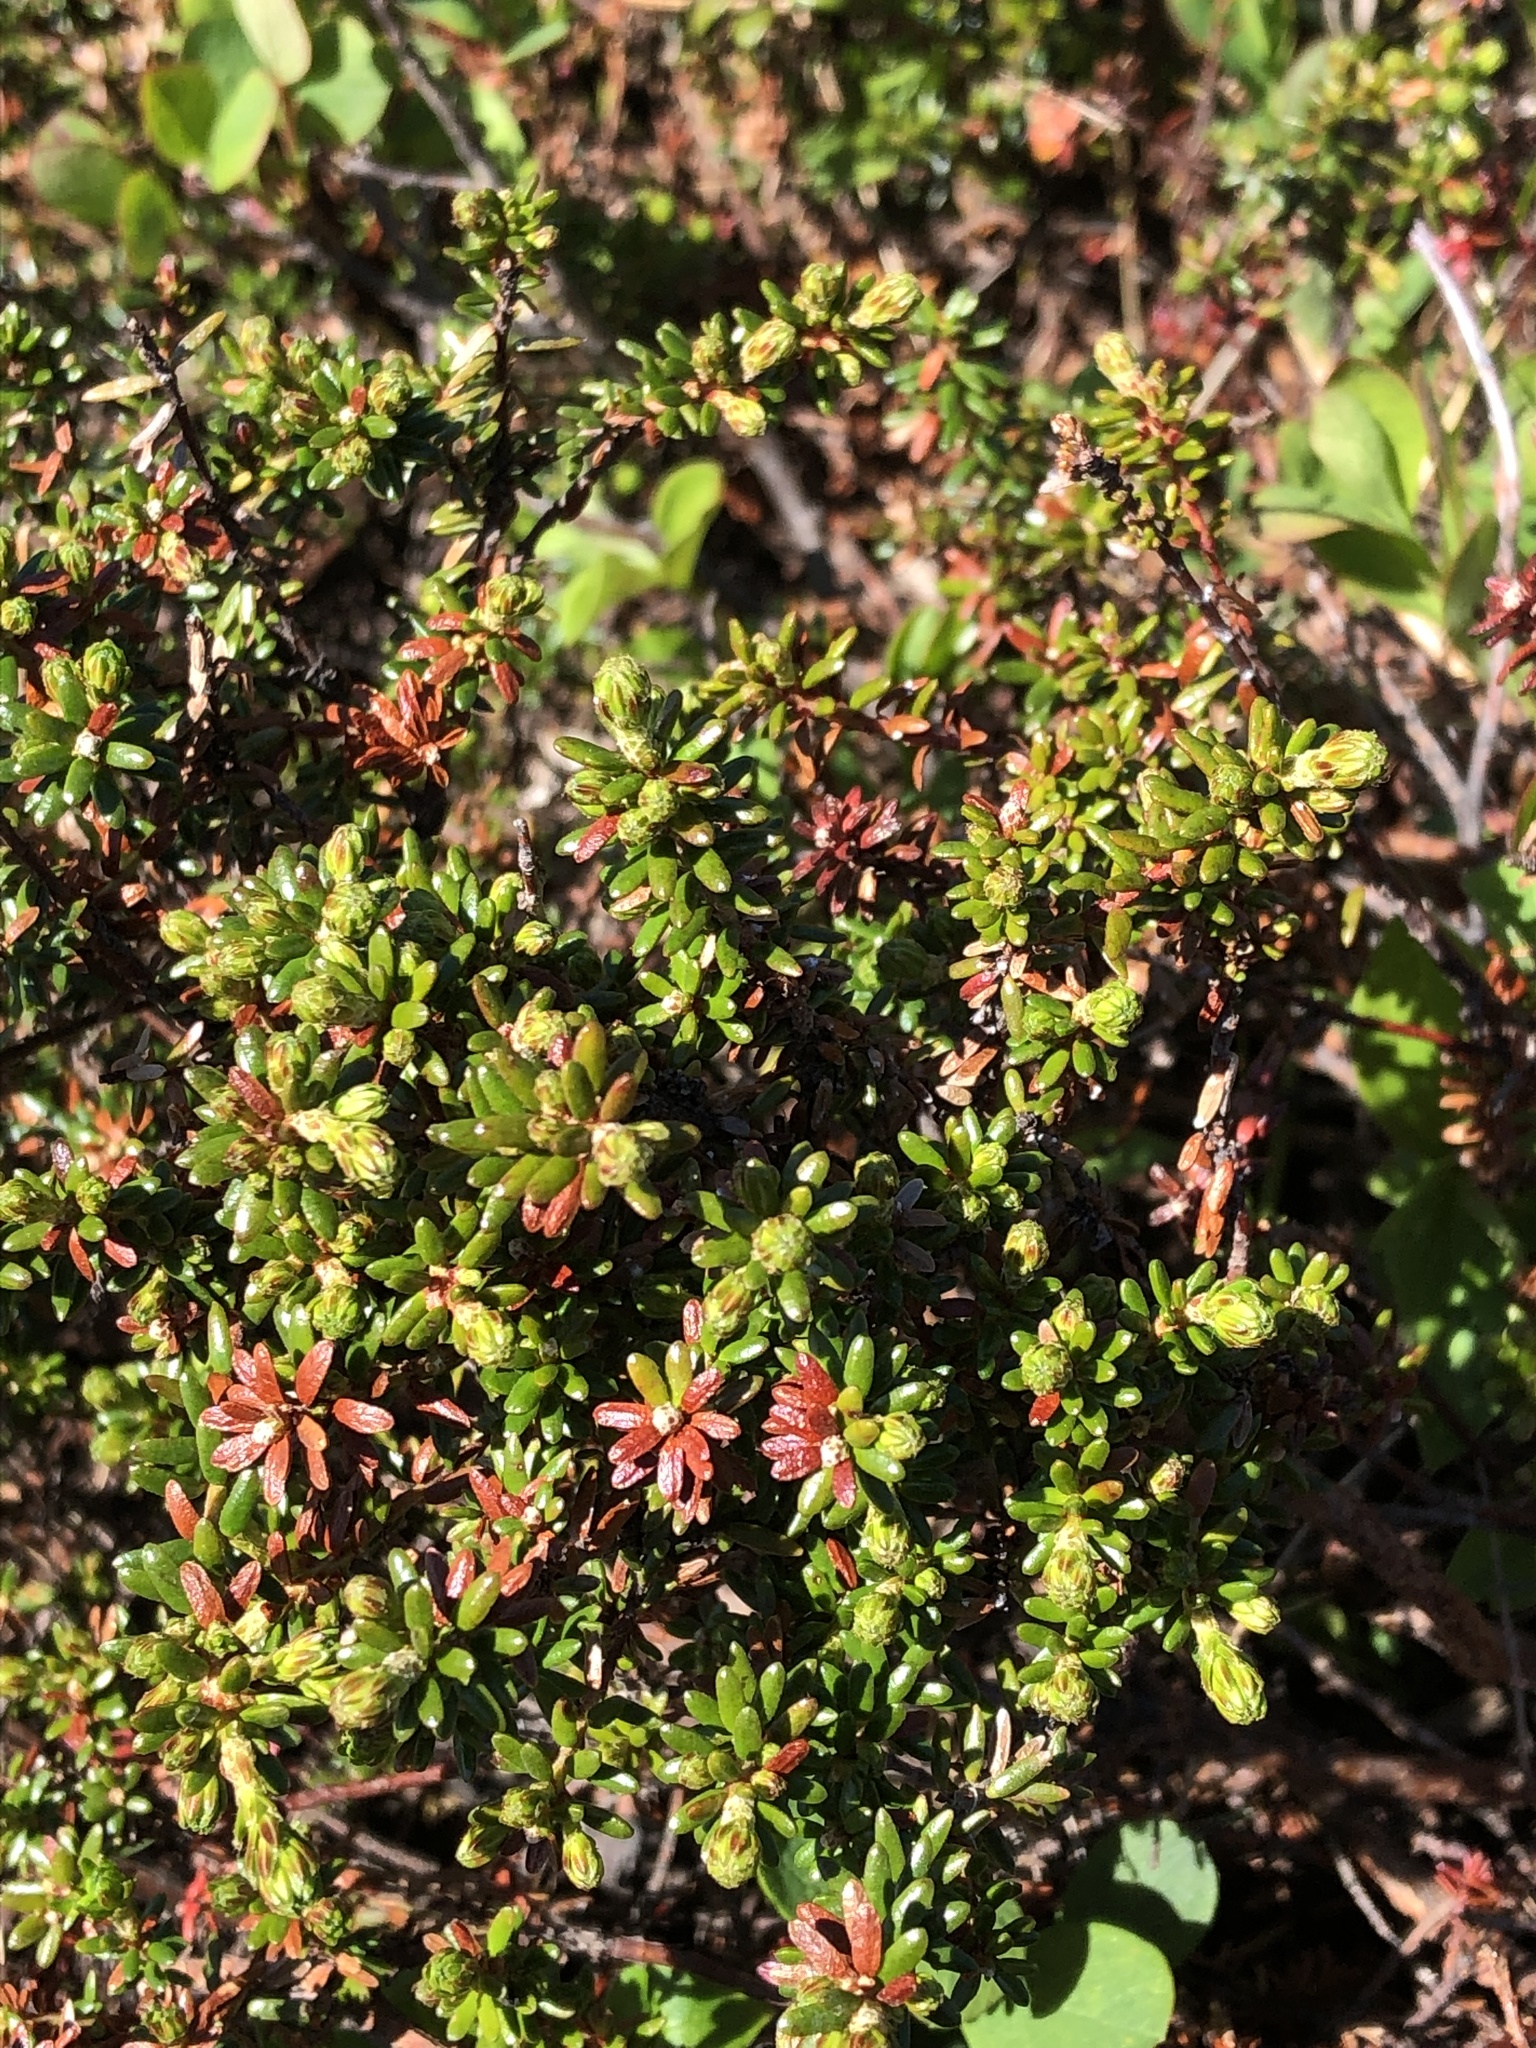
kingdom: Plantae
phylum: Tracheophyta
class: Magnoliopsida
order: Ericales
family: Ericaceae
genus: Empetrum
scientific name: Empetrum nigrum
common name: Black crowberry
